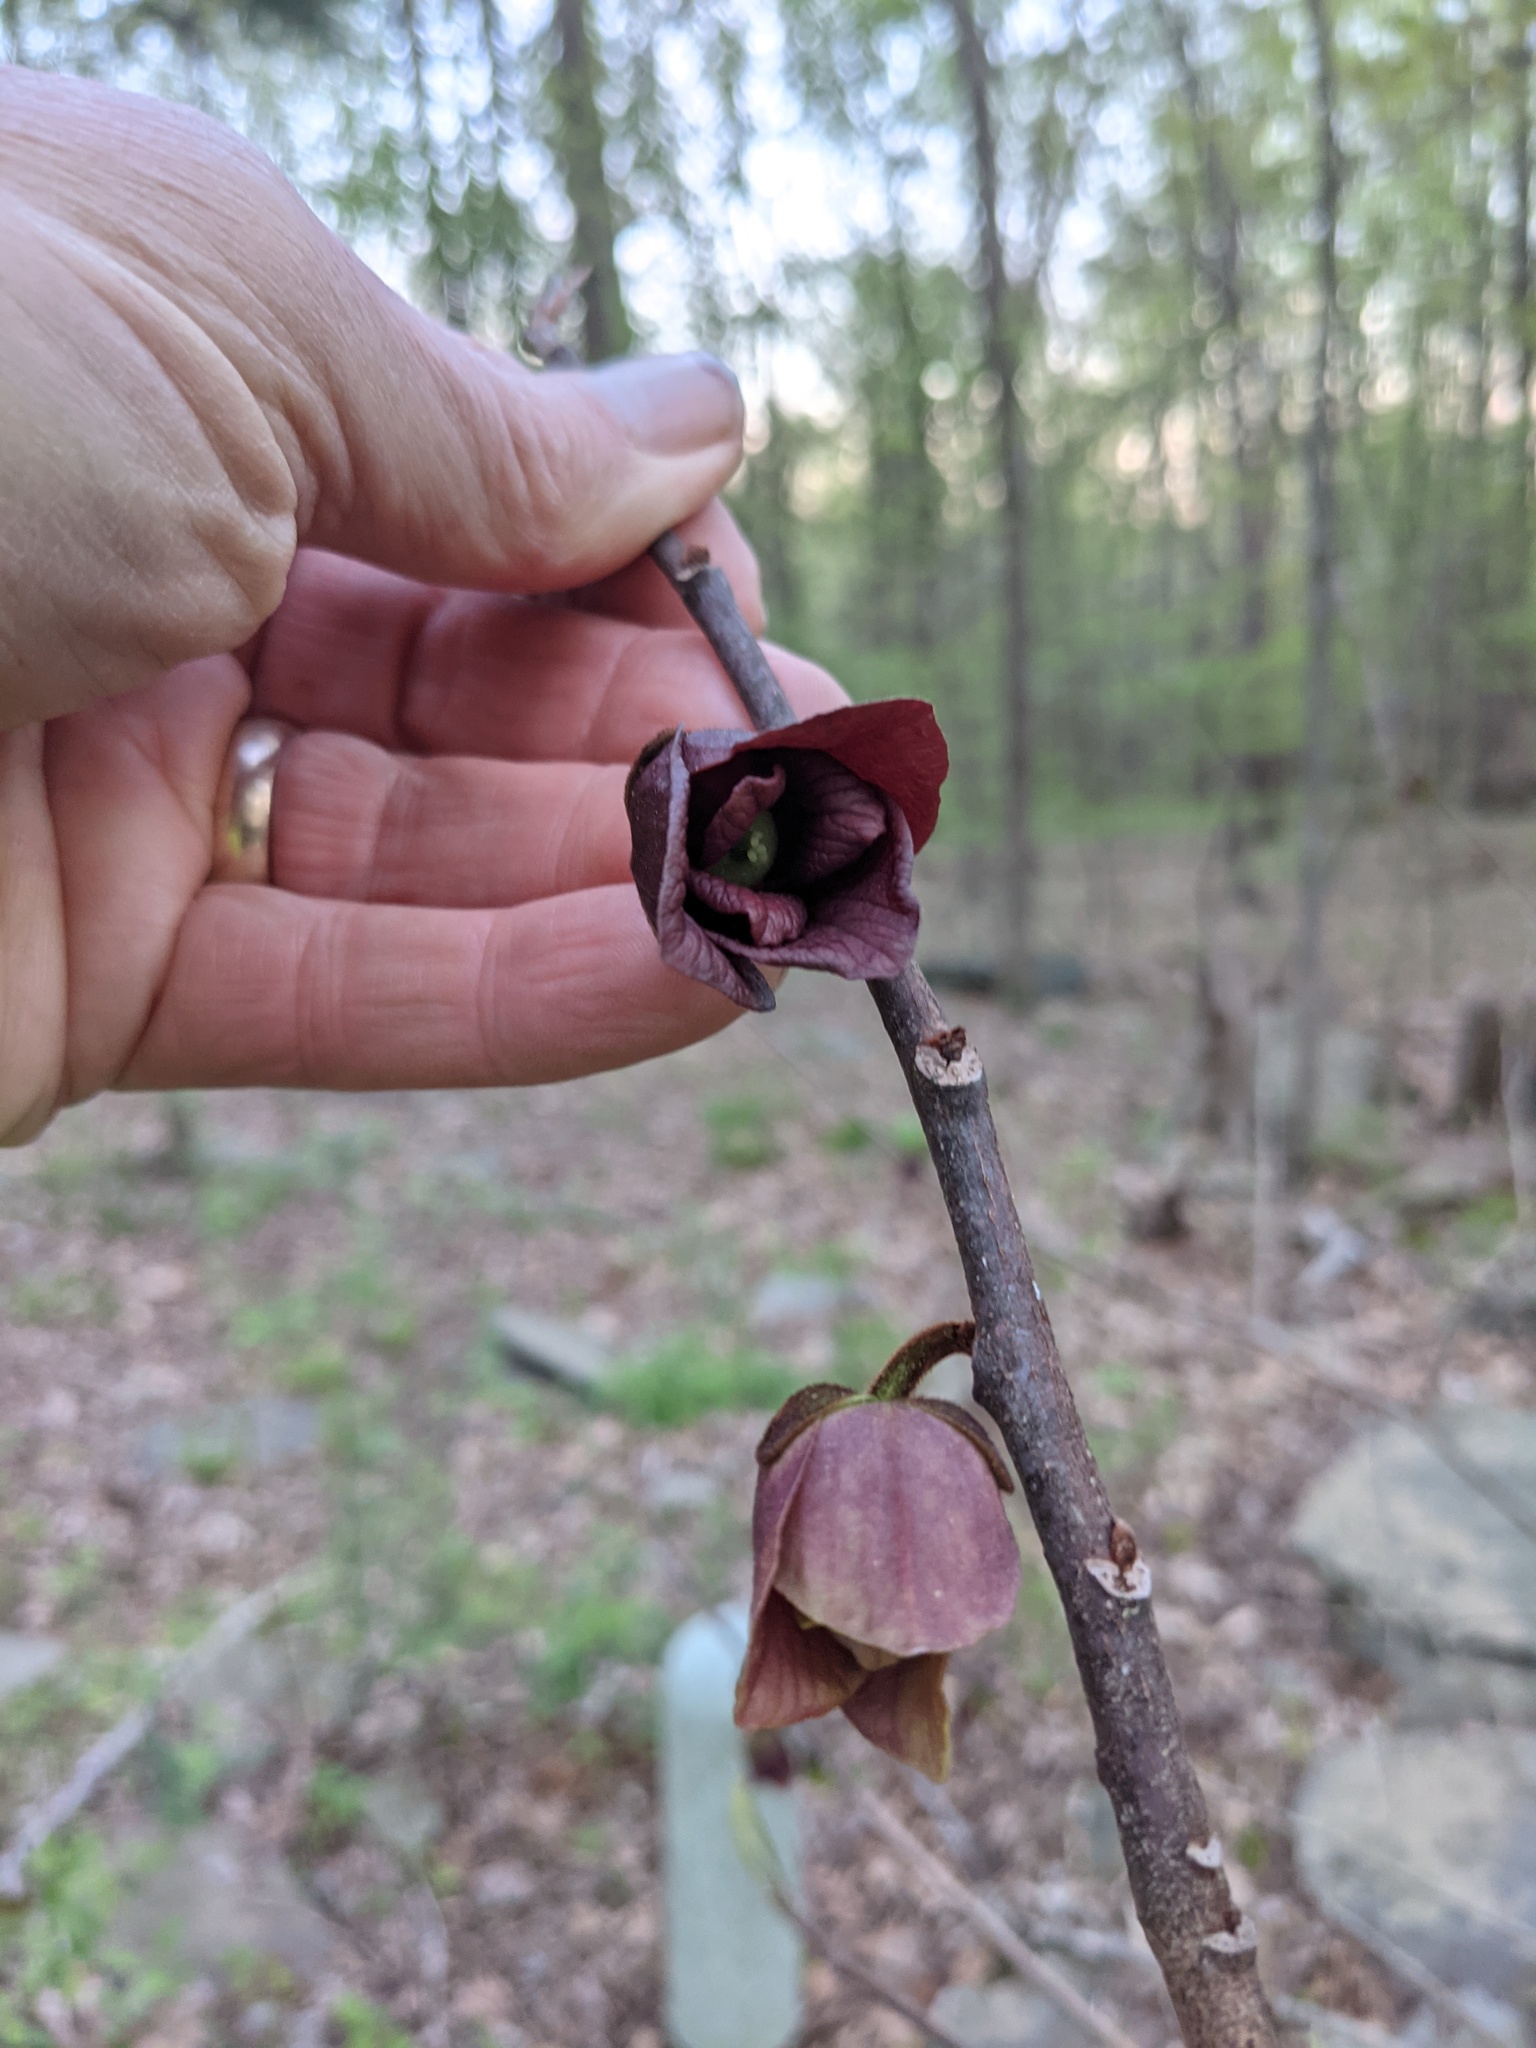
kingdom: Plantae
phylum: Tracheophyta
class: Magnoliopsida
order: Magnoliales
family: Annonaceae
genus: Asimina
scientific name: Asimina triloba
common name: Dog-banana
